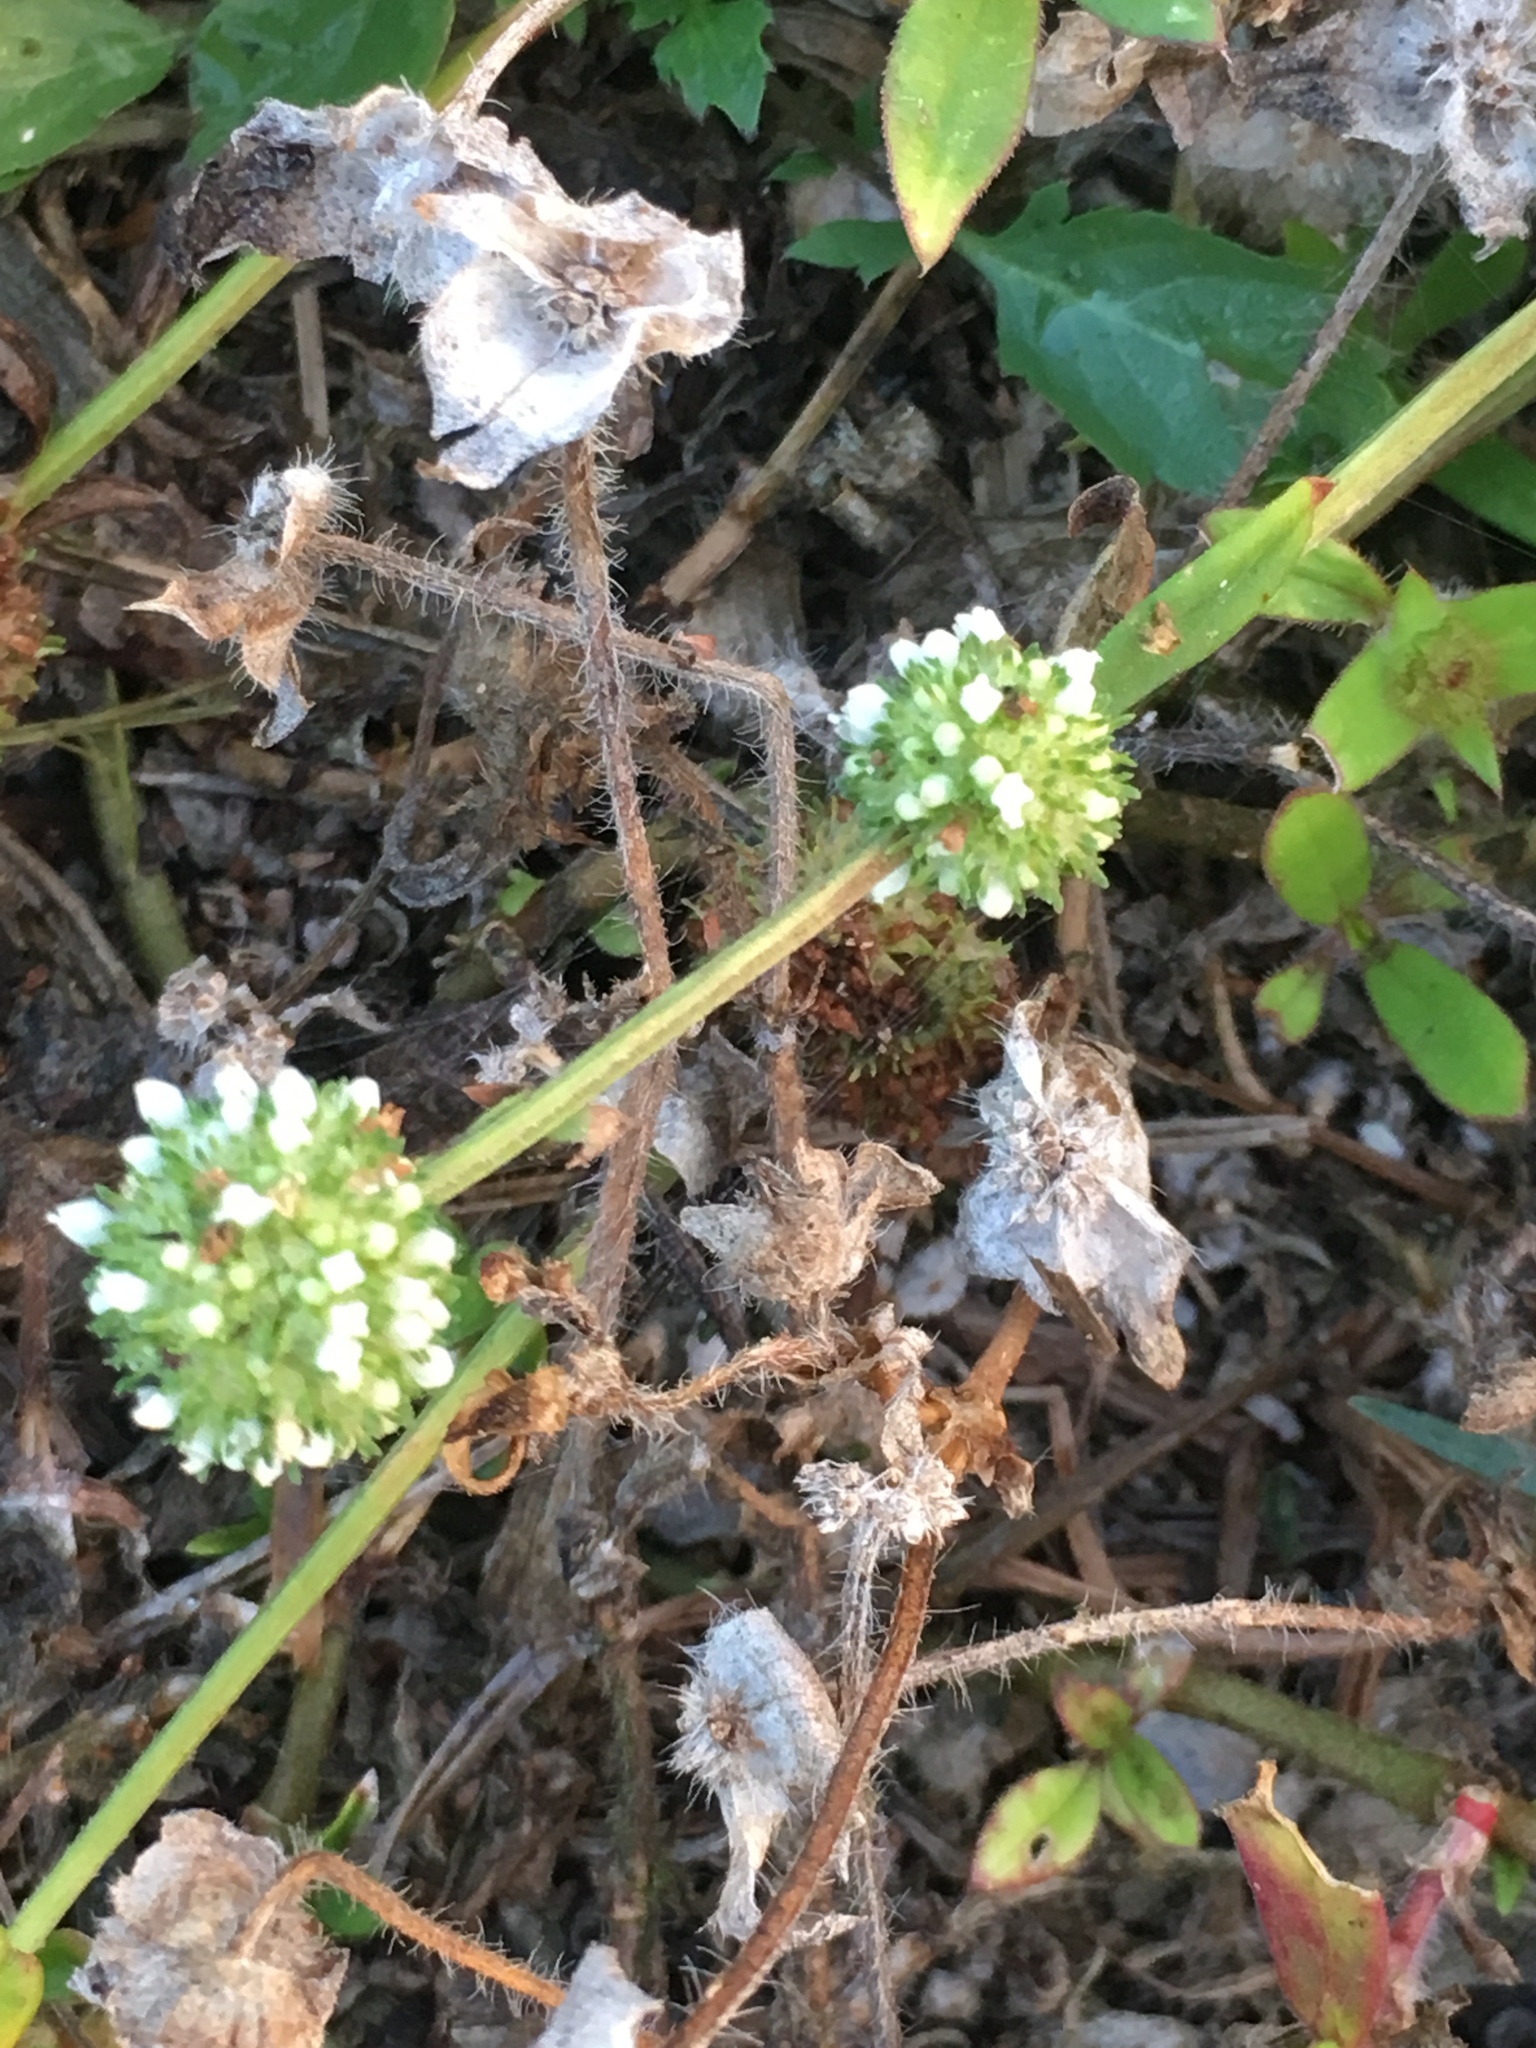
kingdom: Plantae
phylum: Tracheophyta
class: Magnoliopsida
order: Gentianales
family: Rubiaceae
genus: Spermacoce
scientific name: Spermacoce verticillata
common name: Shrubby false buttonweed
